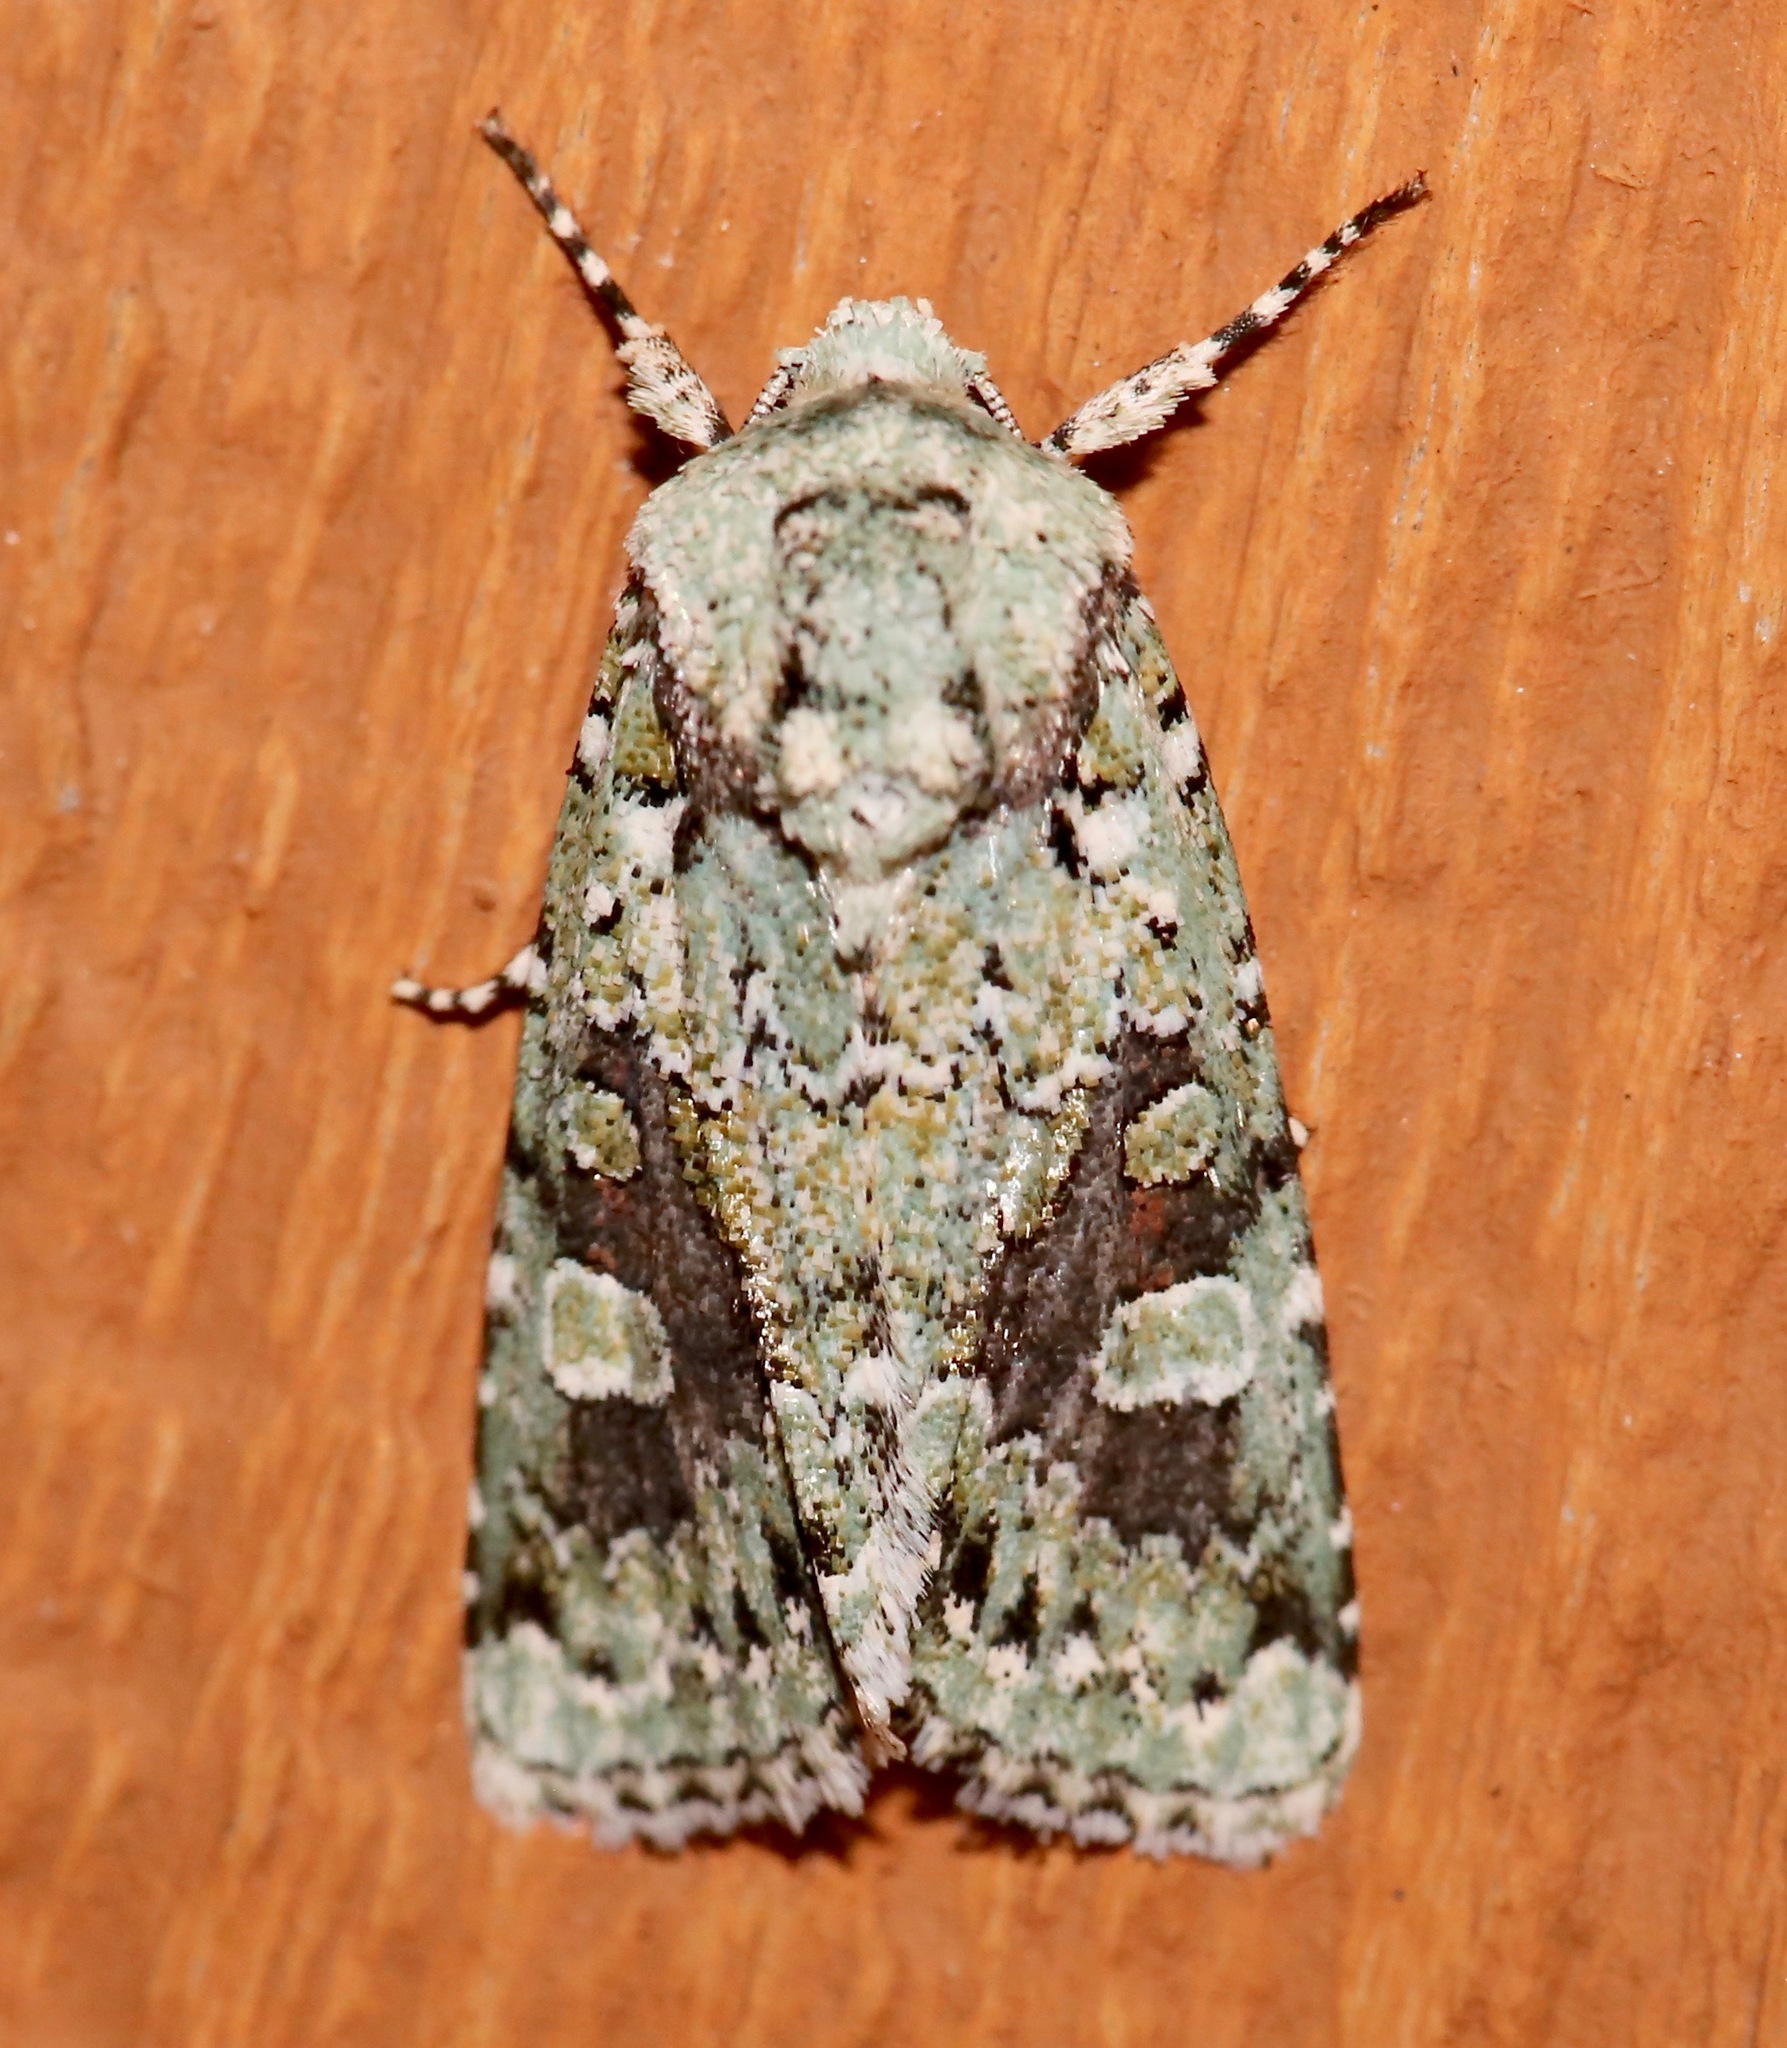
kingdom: Animalia
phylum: Arthropoda
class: Insecta
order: Lepidoptera
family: Noctuidae
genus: Lacinipolia
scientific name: Lacinipolia laudabilis
